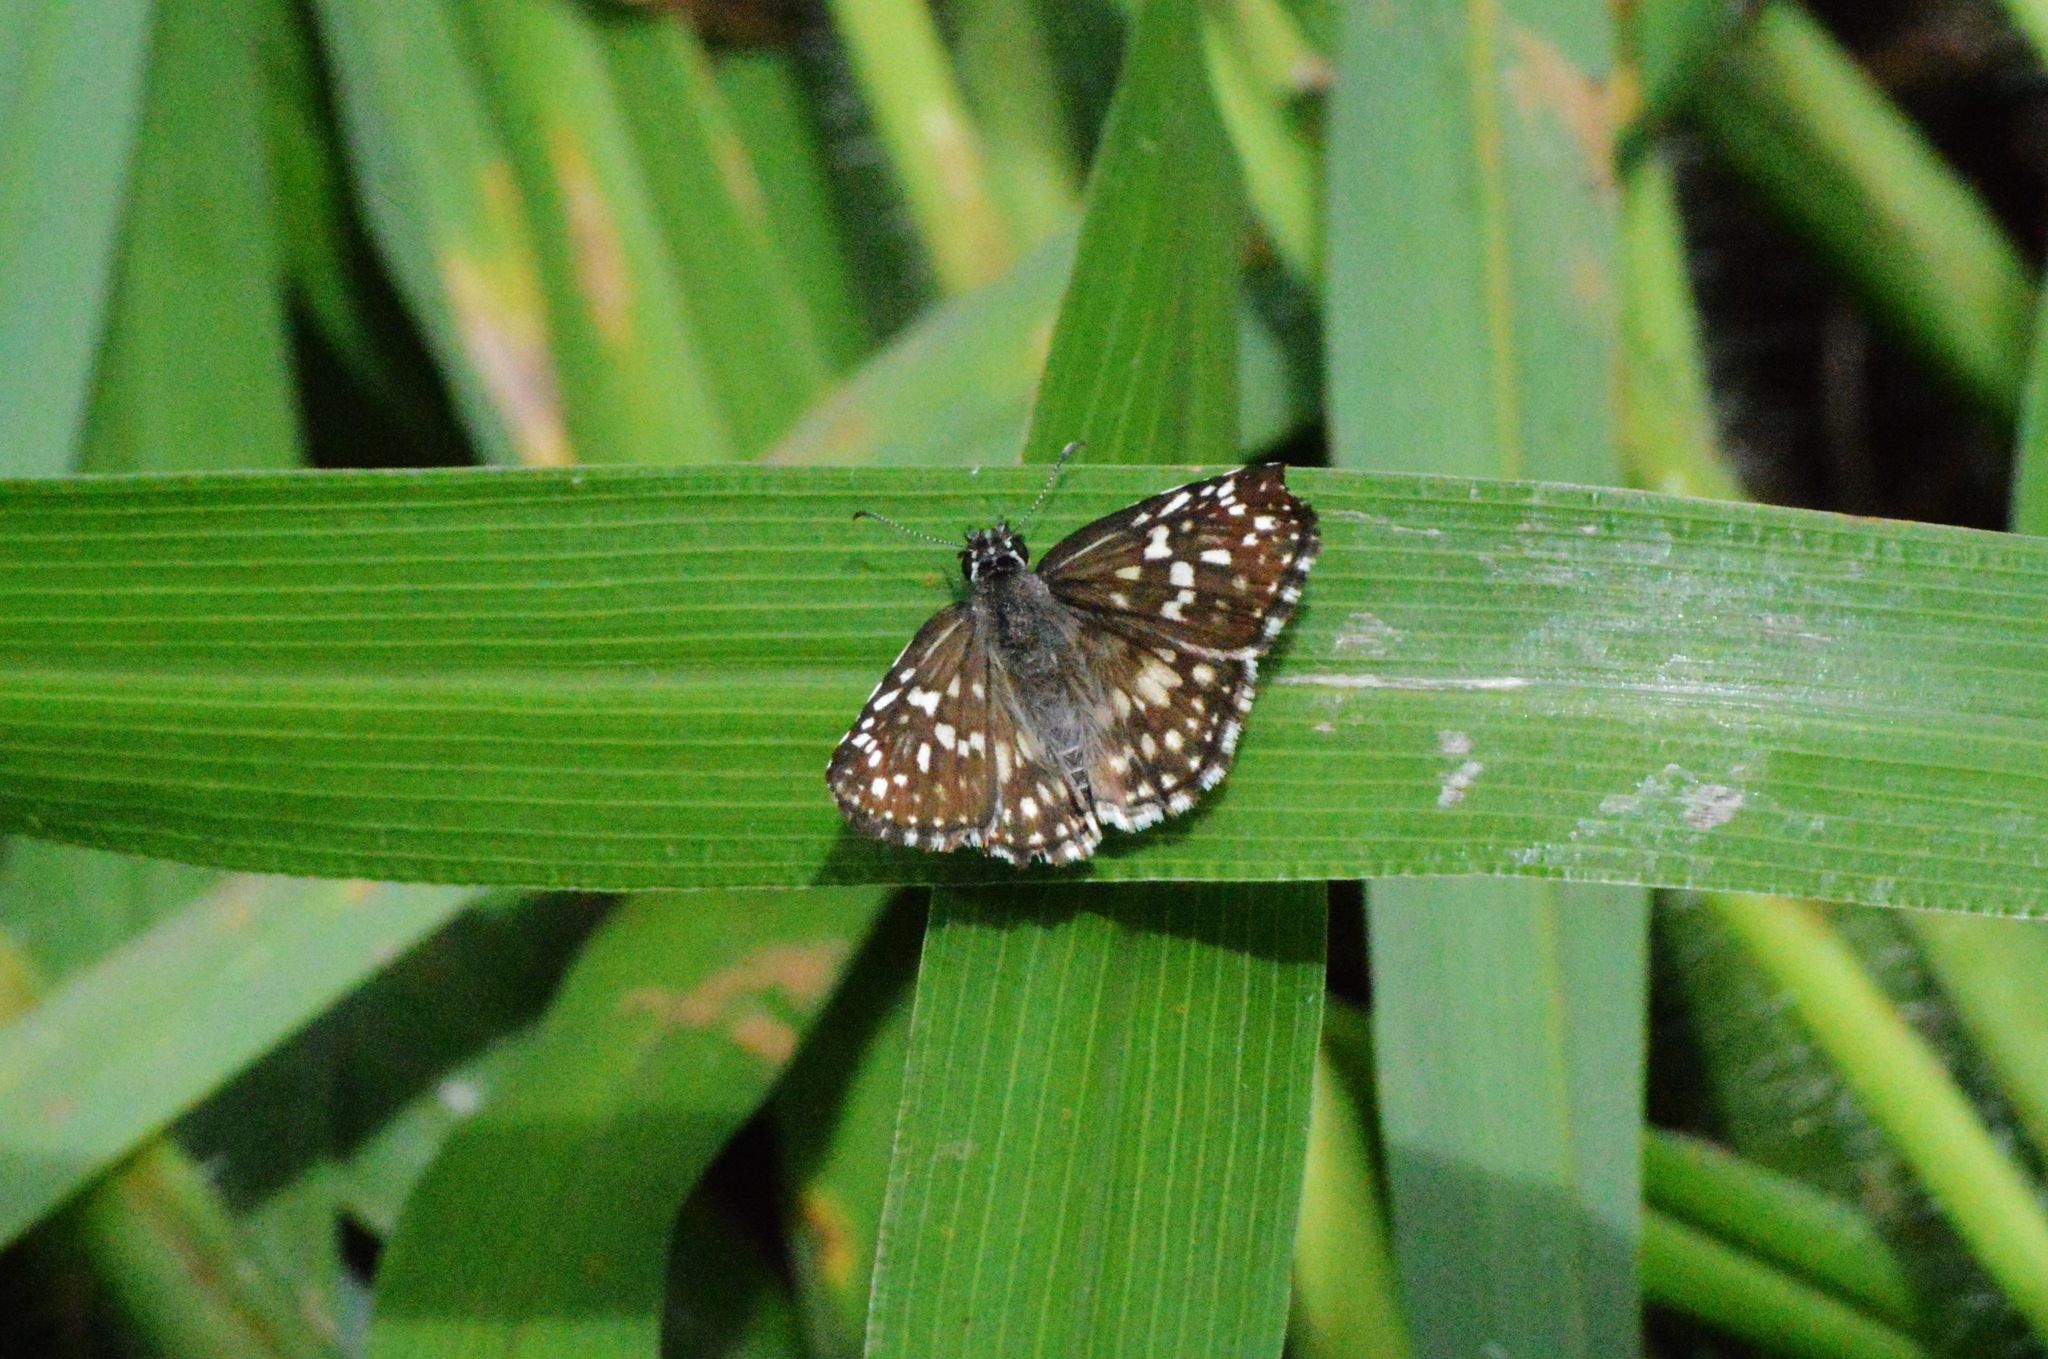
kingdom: Animalia
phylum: Arthropoda
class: Insecta
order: Lepidoptera
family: Hesperiidae
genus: Pyrgus
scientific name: Pyrgus oileus
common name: Tropical checkered-skipper
